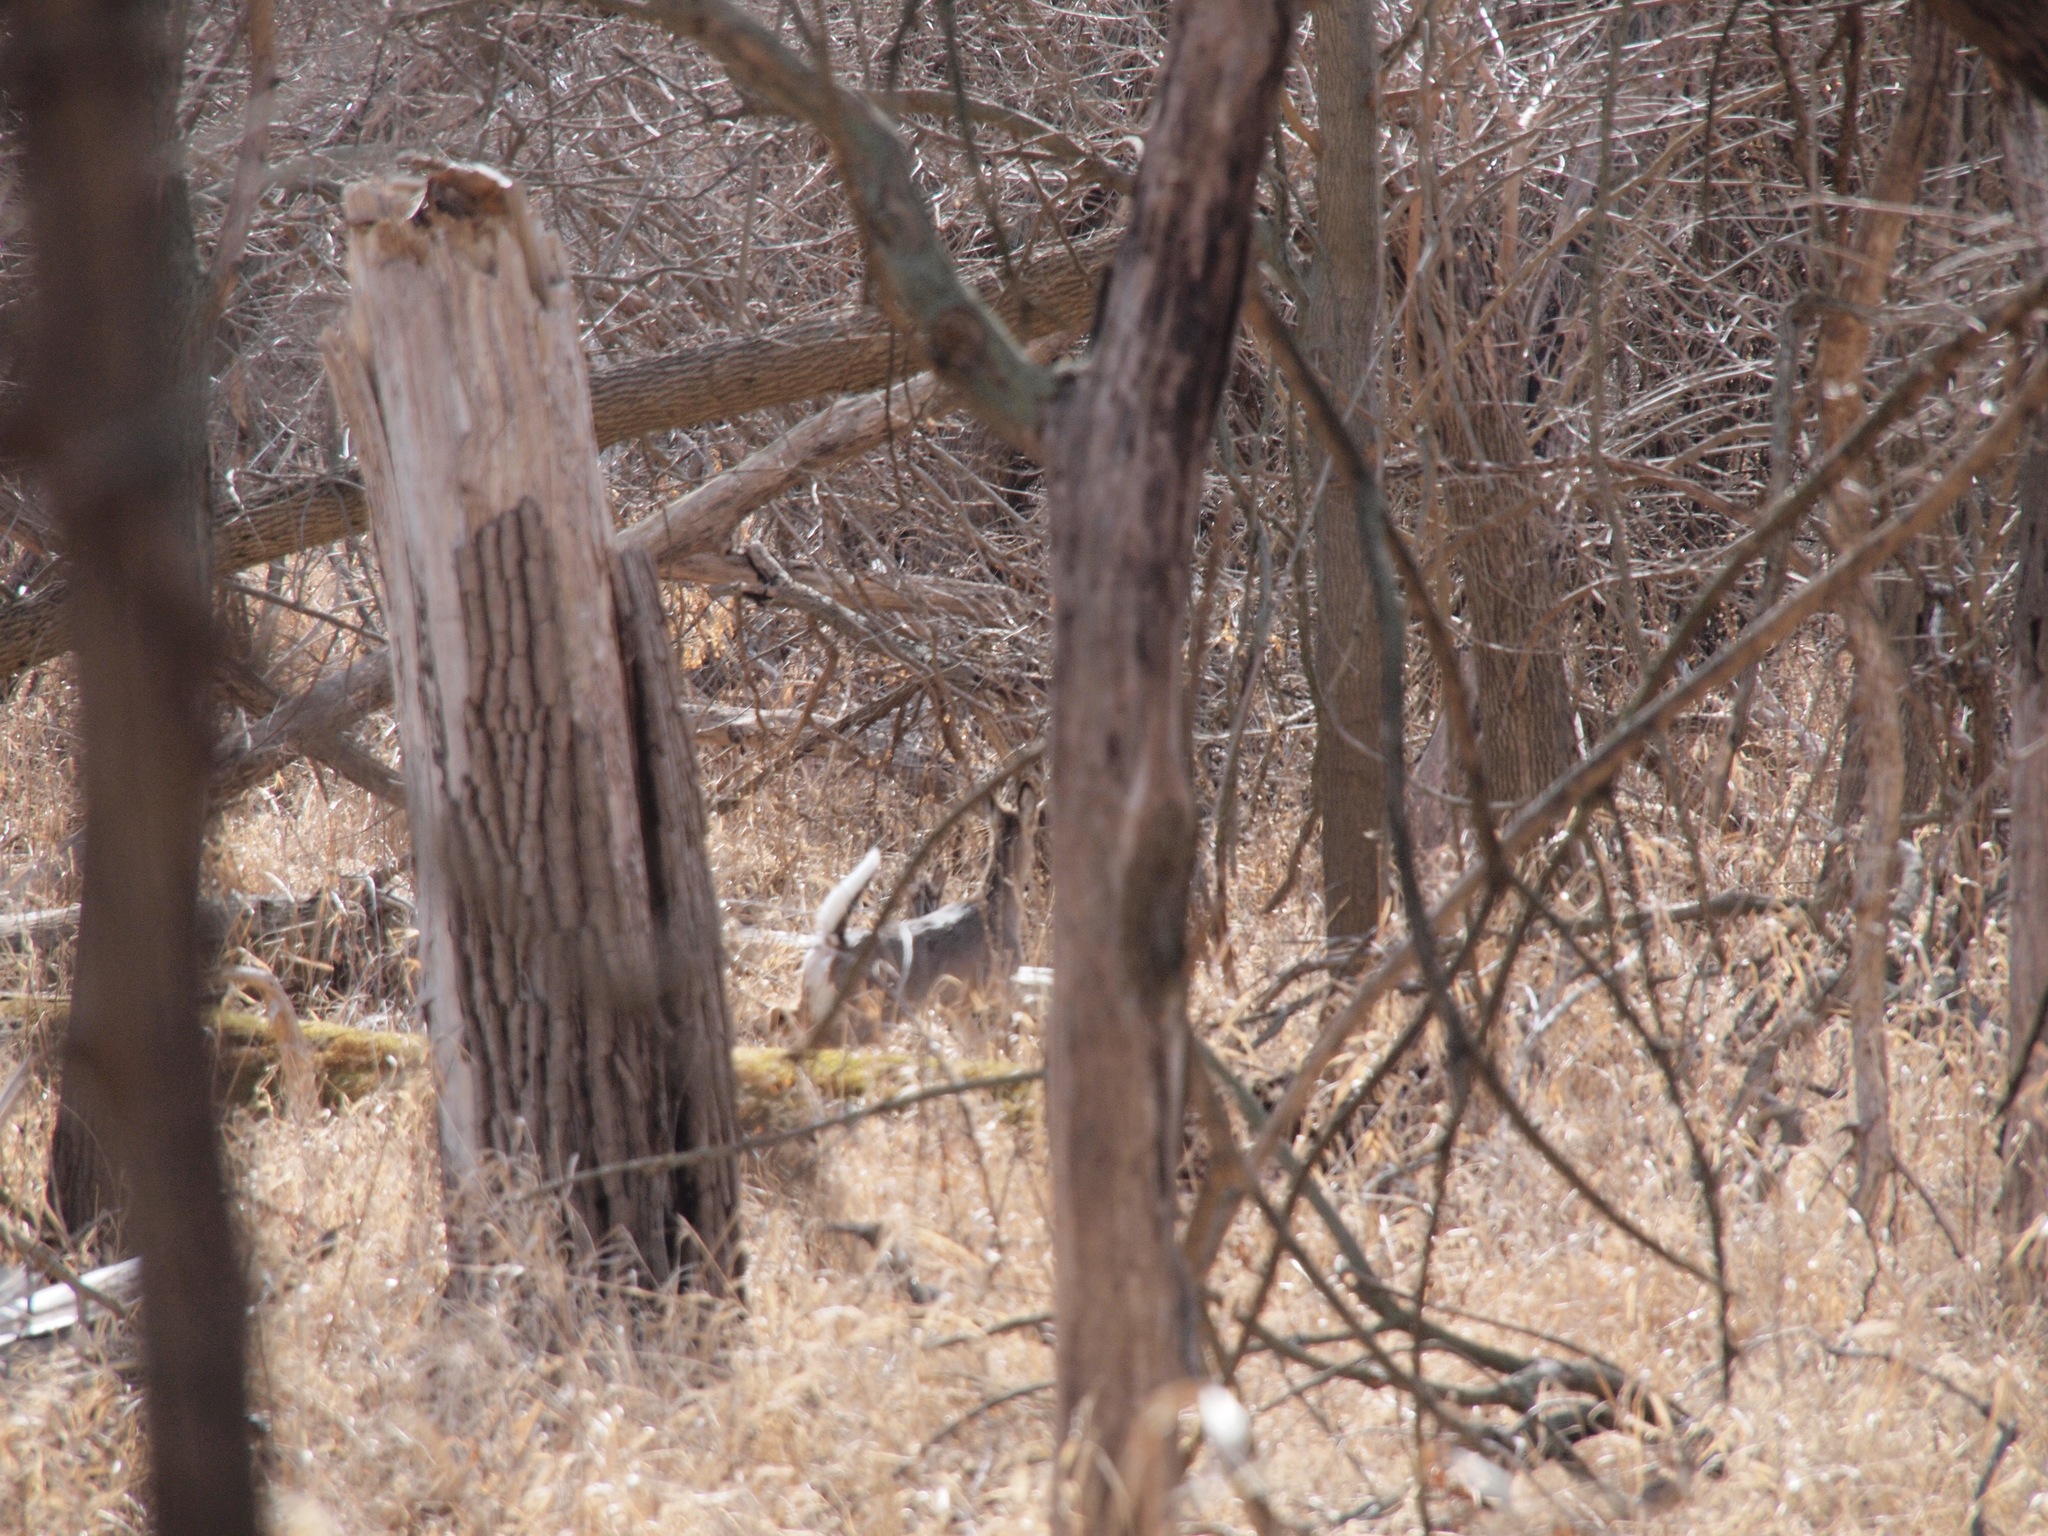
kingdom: Animalia
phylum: Chordata
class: Mammalia
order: Artiodactyla
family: Cervidae
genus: Odocoileus
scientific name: Odocoileus virginianus
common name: White-tailed deer
